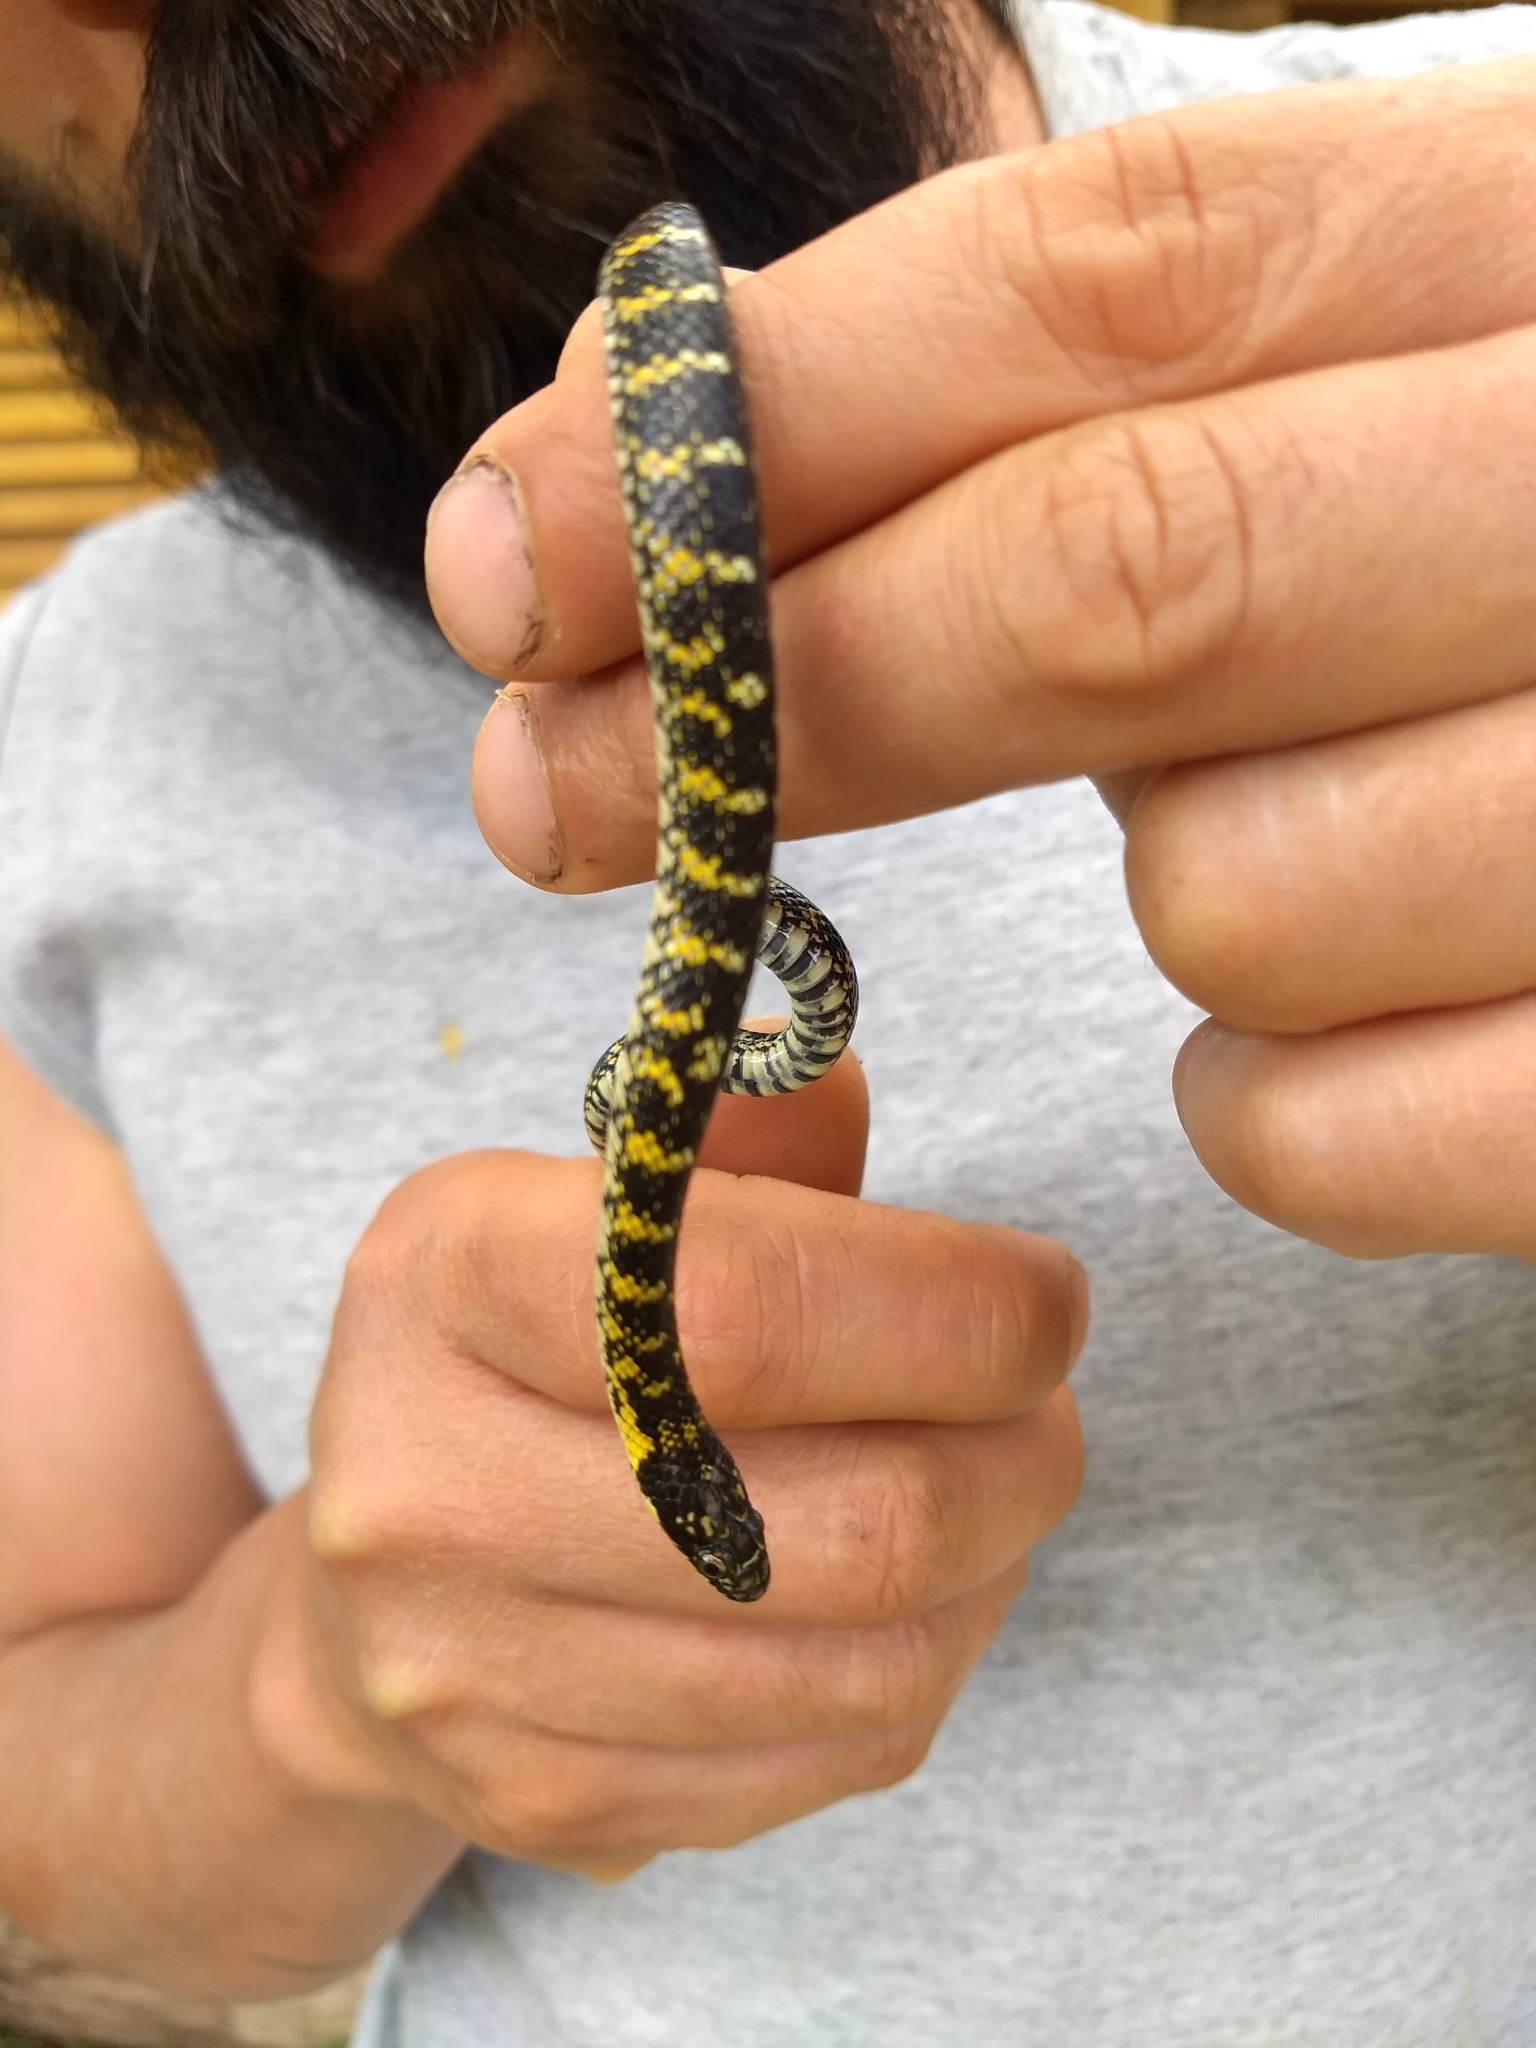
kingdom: Animalia
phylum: Chordata
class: Squamata
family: Colubridae
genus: Erythrolamprus
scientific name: Erythrolamprus poecilogyrus
